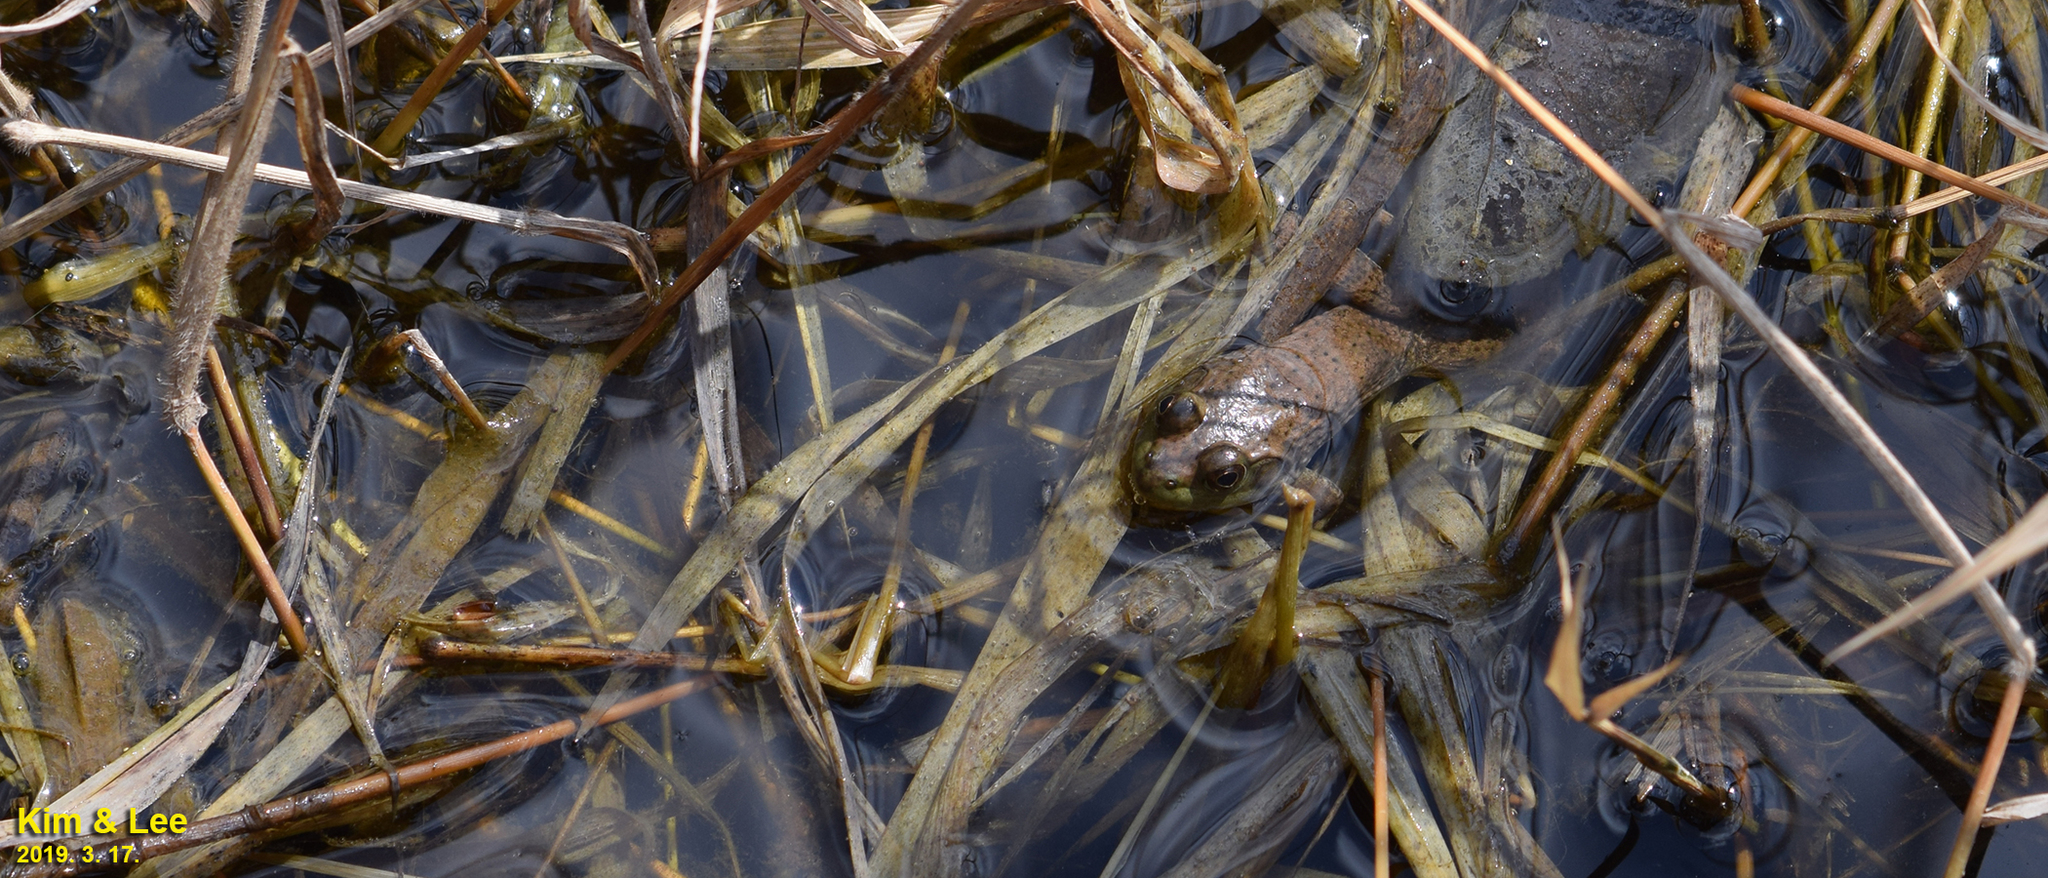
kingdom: Animalia
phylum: Chordata
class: Amphibia
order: Anura
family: Ranidae
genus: Lithobates
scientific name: Lithobates catesbeianus
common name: American bullfrog
